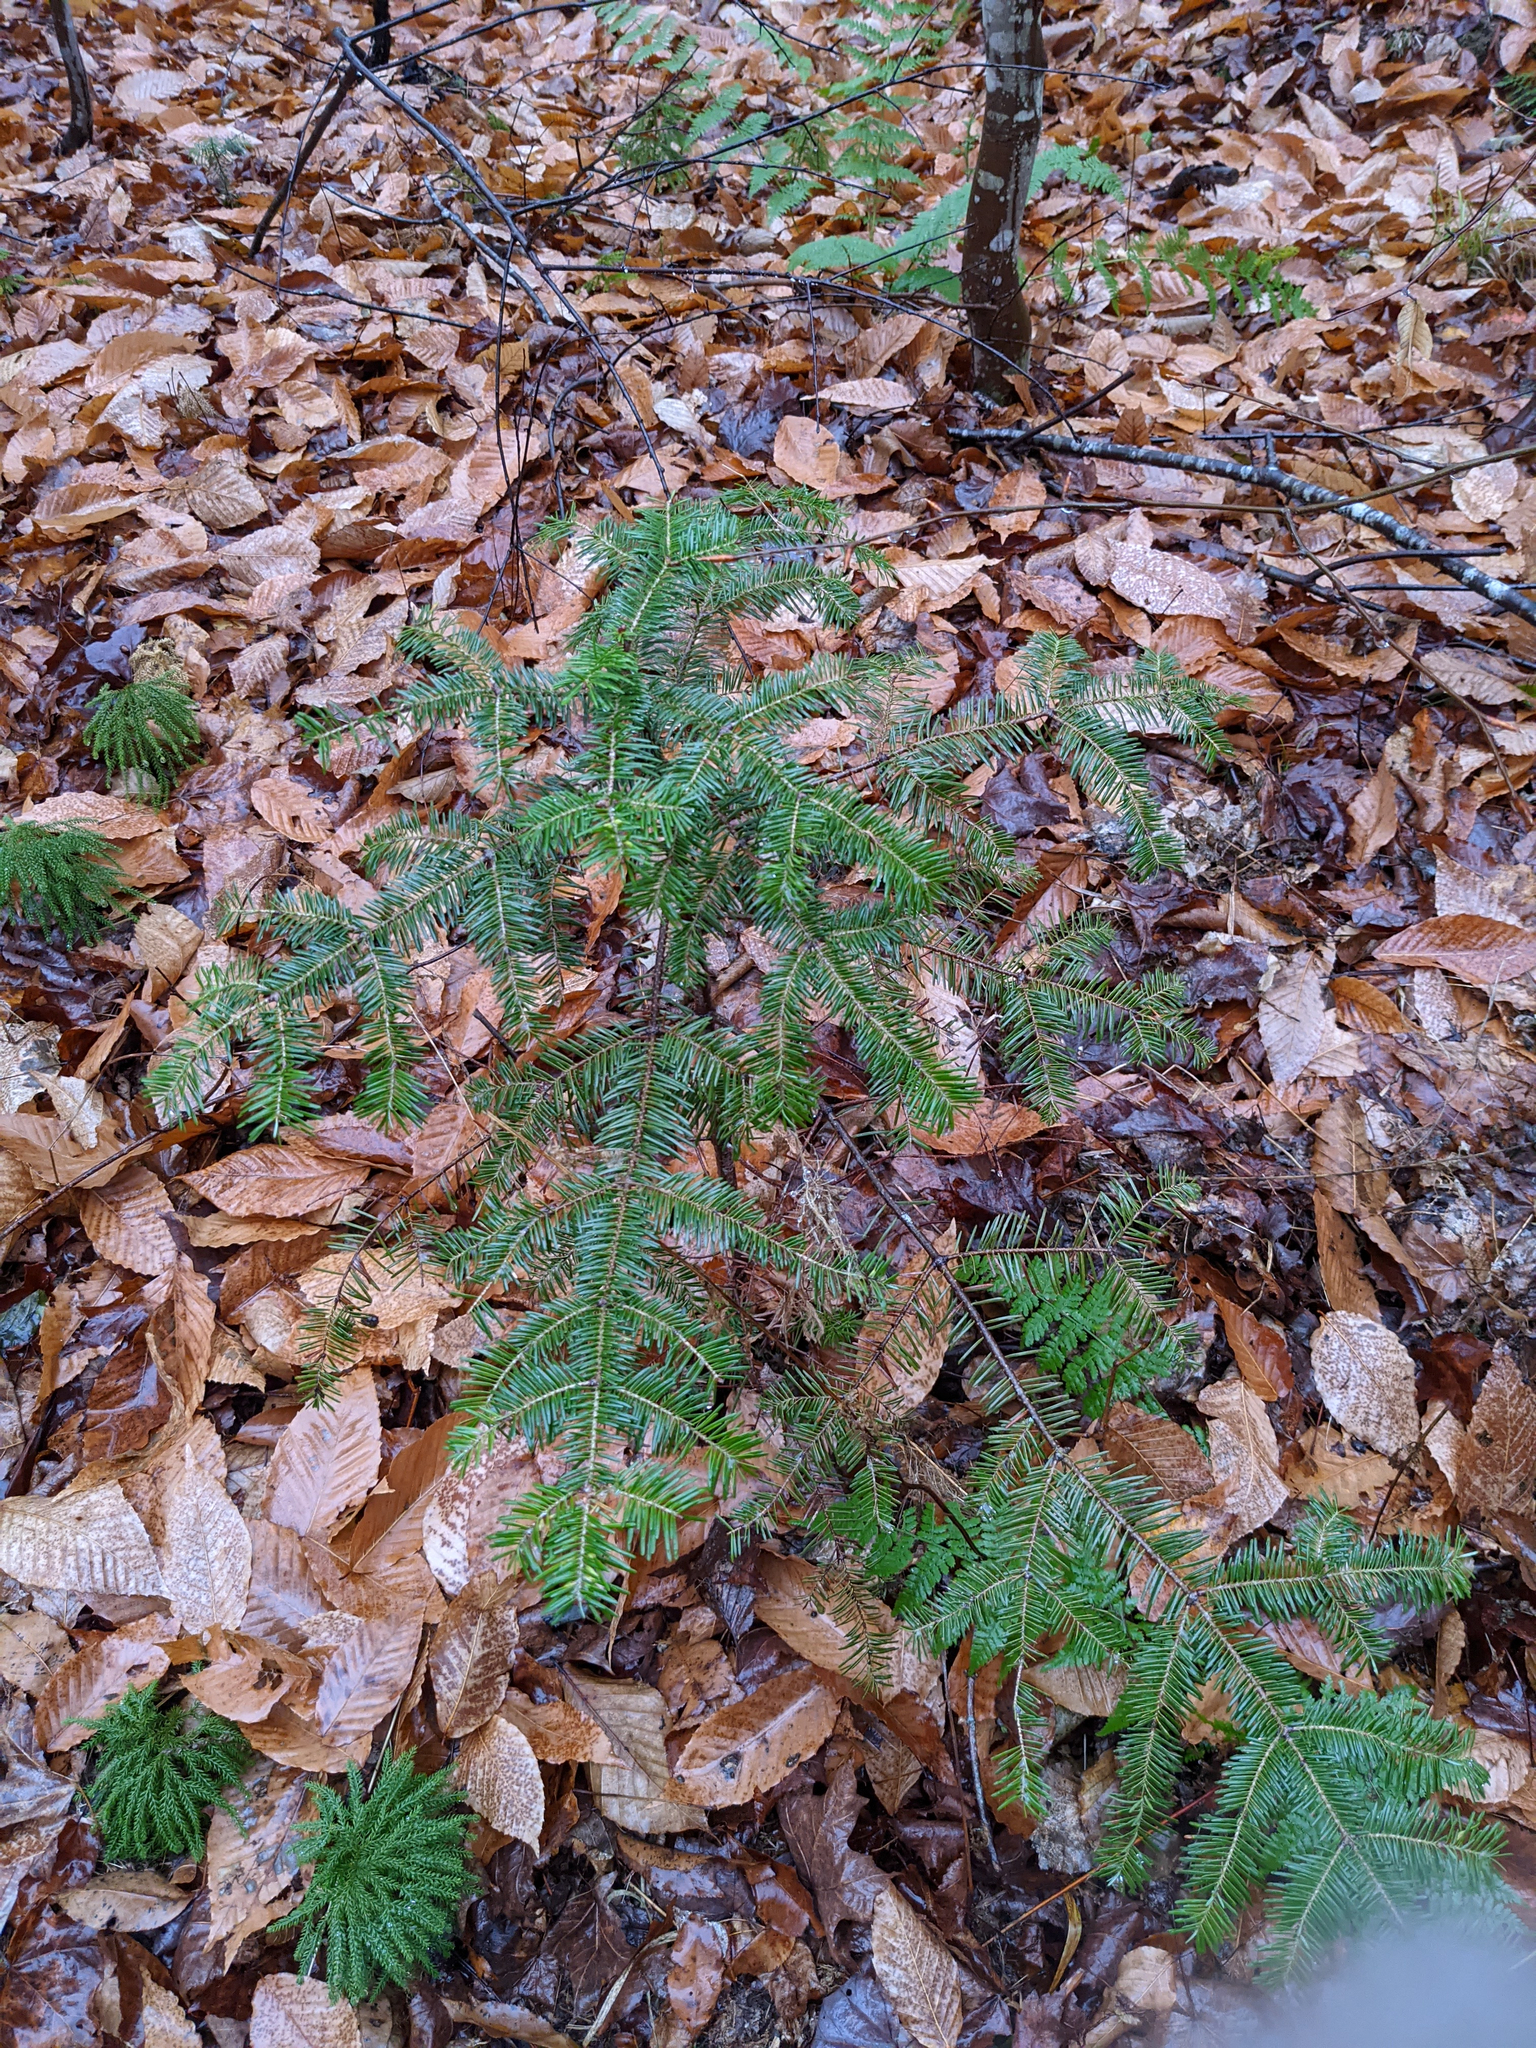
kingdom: Plantae
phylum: Tracheophyta
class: Pinopsida
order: Pinales
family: Pinaceae
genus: Abies
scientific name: Abies balsamea
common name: Balsam fir
